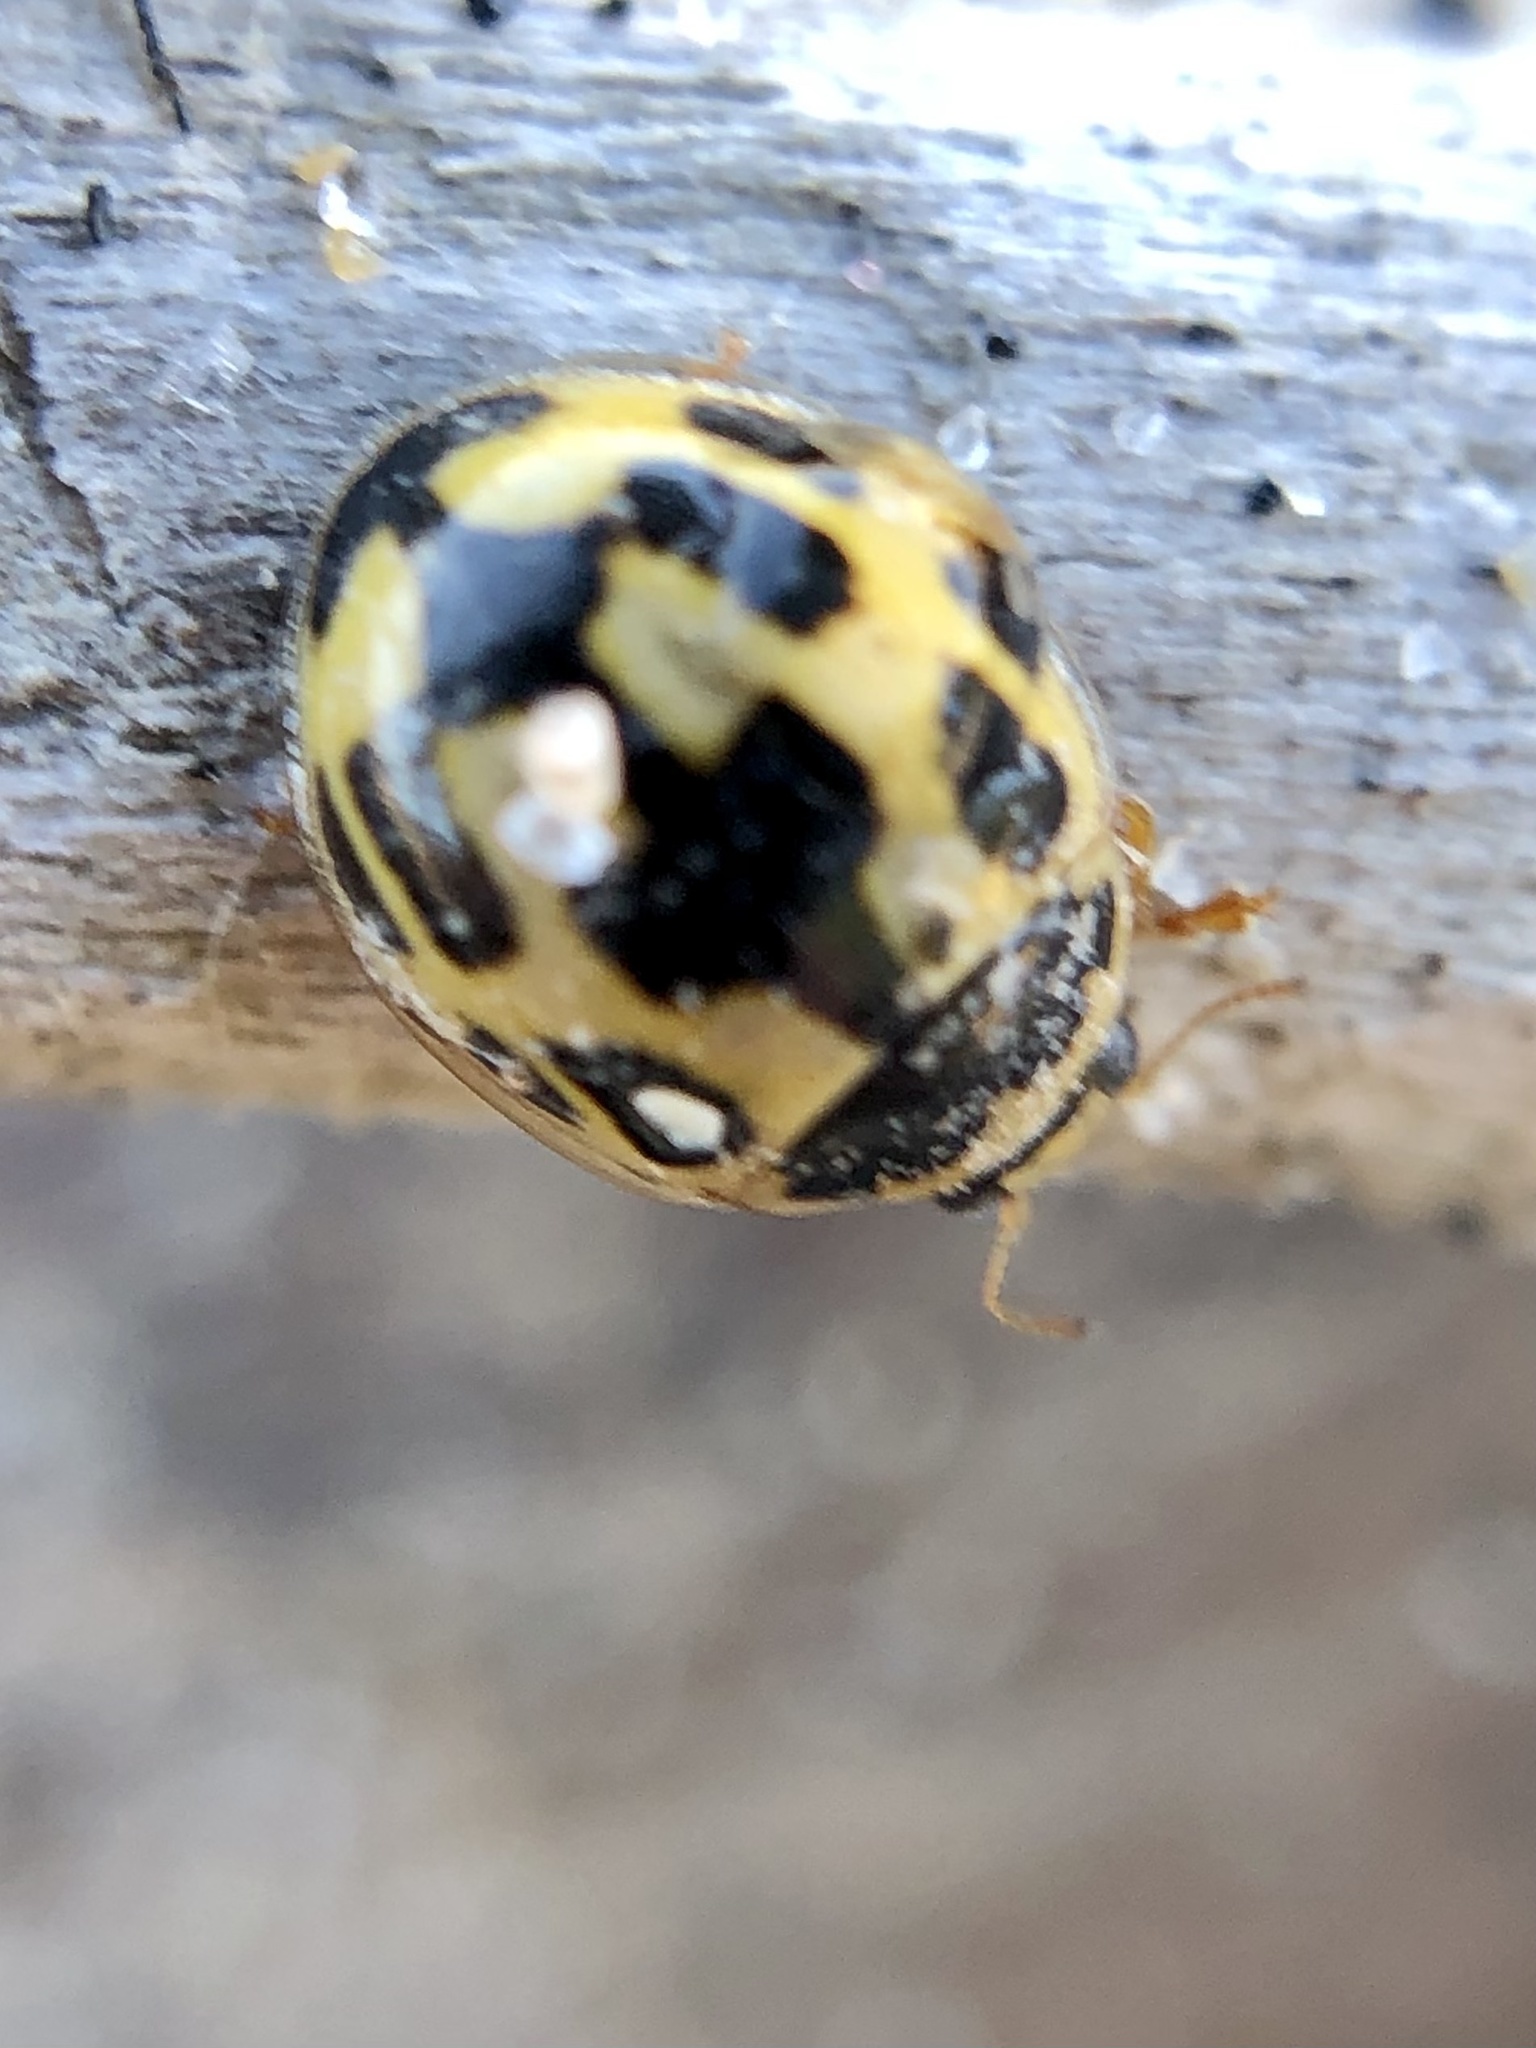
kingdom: Animalia
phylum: Arthropoda
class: Insecta
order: Coleoptera
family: Coccinellidae
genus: Propylaea
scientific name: Propylaea quatuordecimpunctata
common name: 14-spotted ladybird beetle
